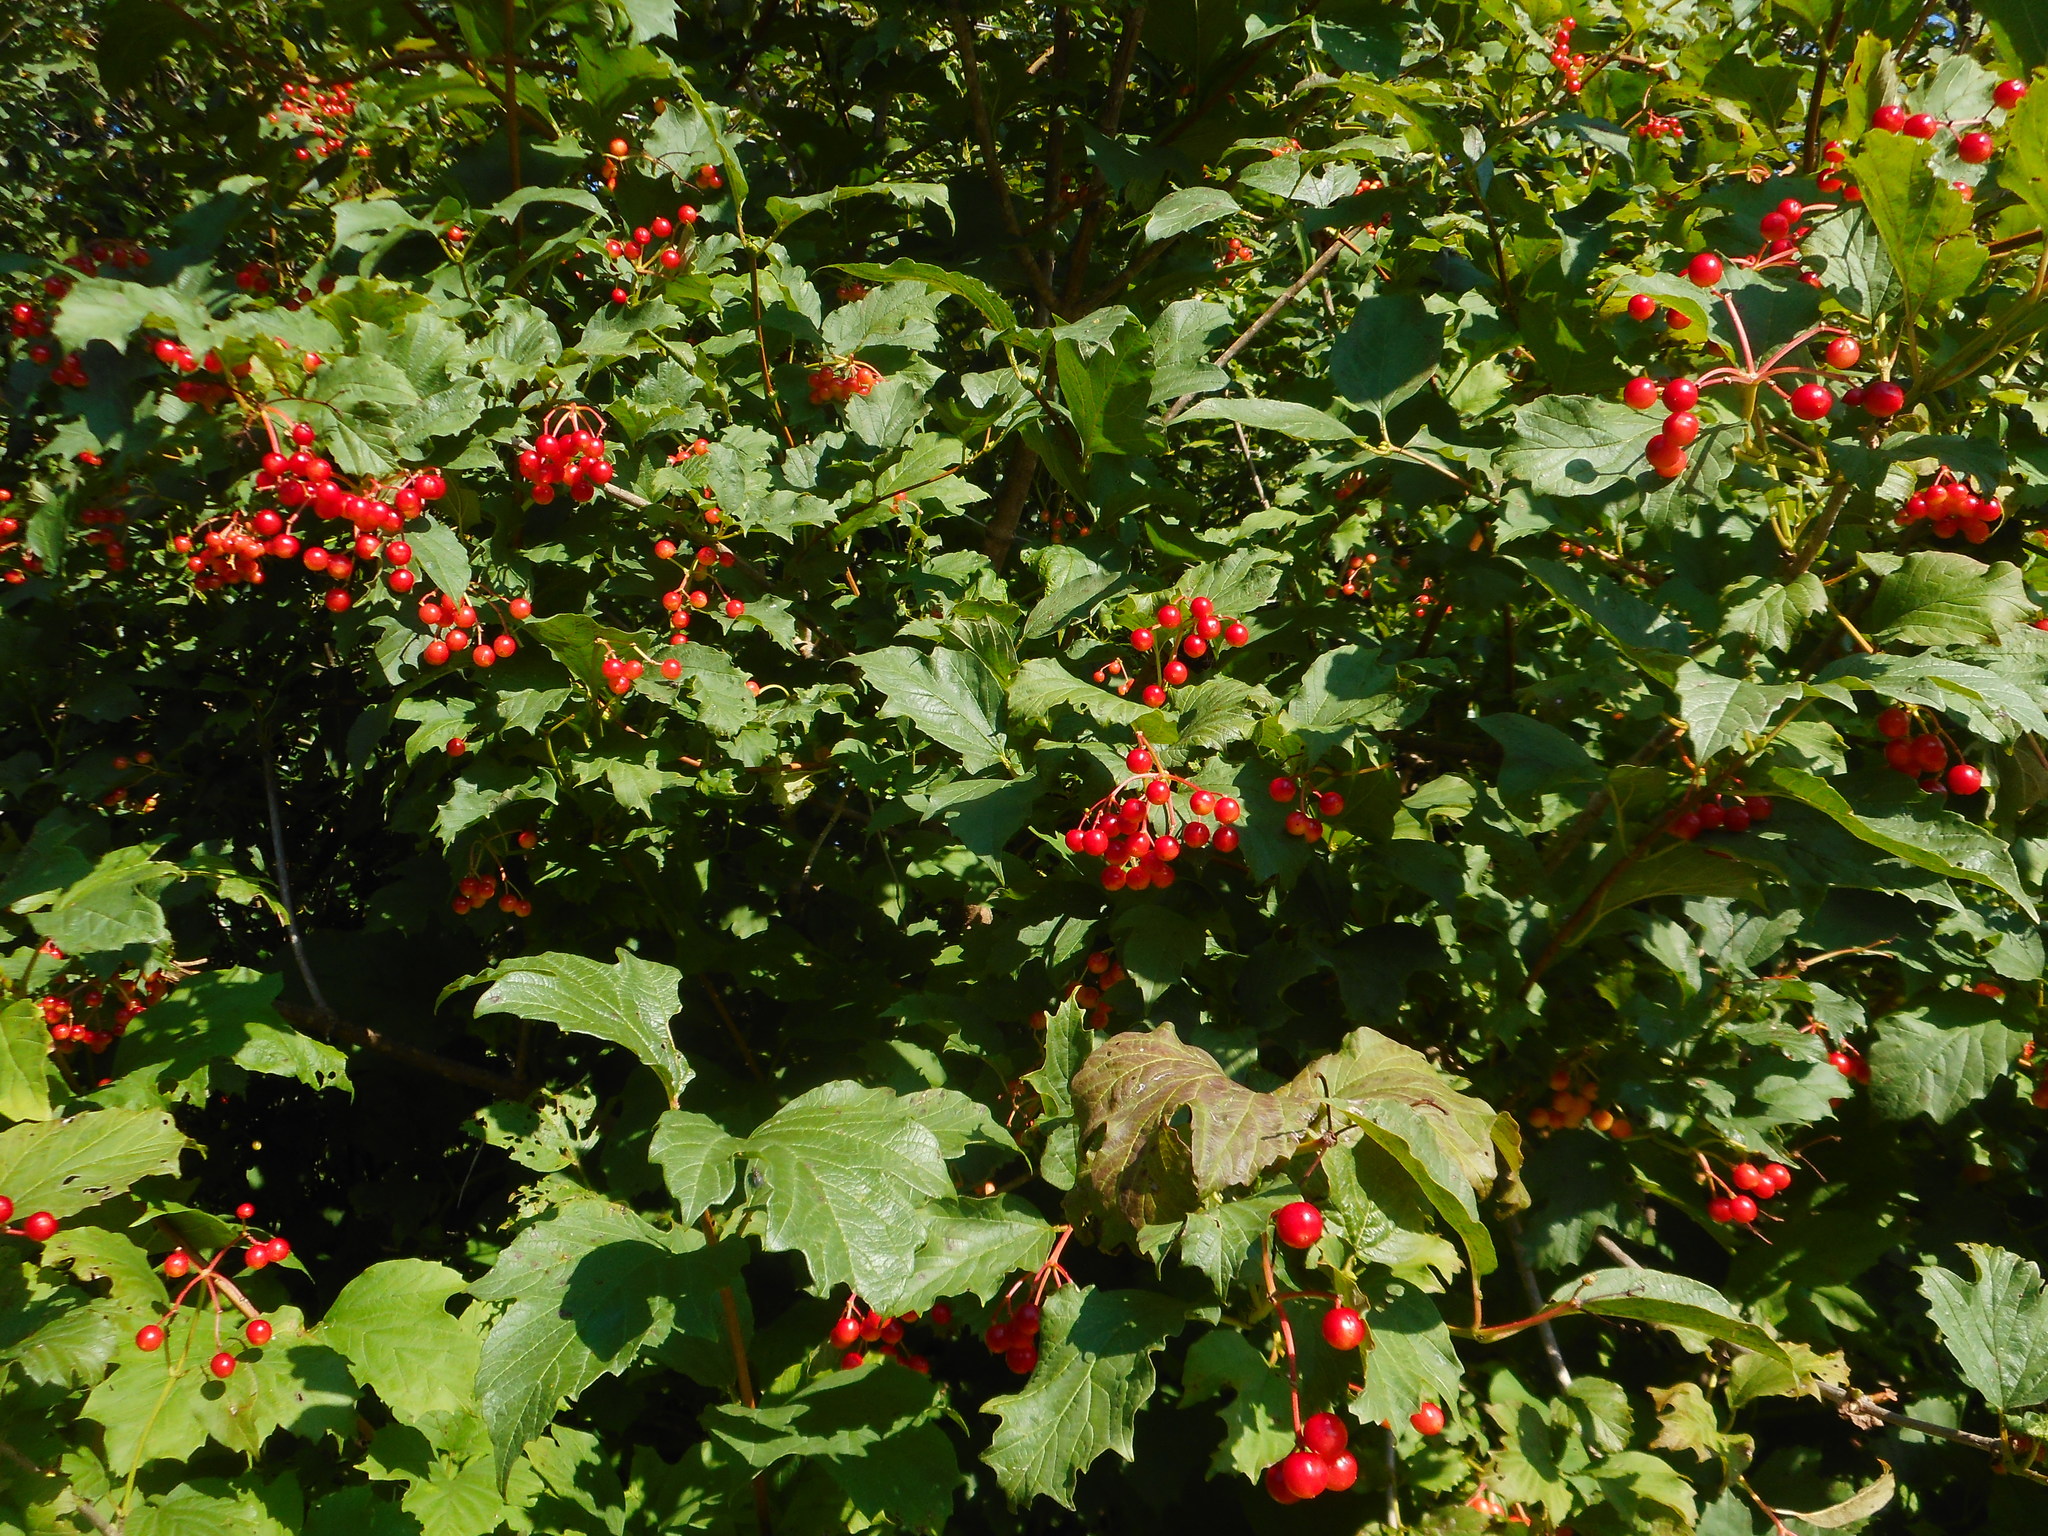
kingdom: Plantae
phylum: Tracheophyta
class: Magnoliopsida
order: Dipsacales
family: Viburnaceae
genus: Viburnum
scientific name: Viburnum opulus
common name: Guelder-rose
